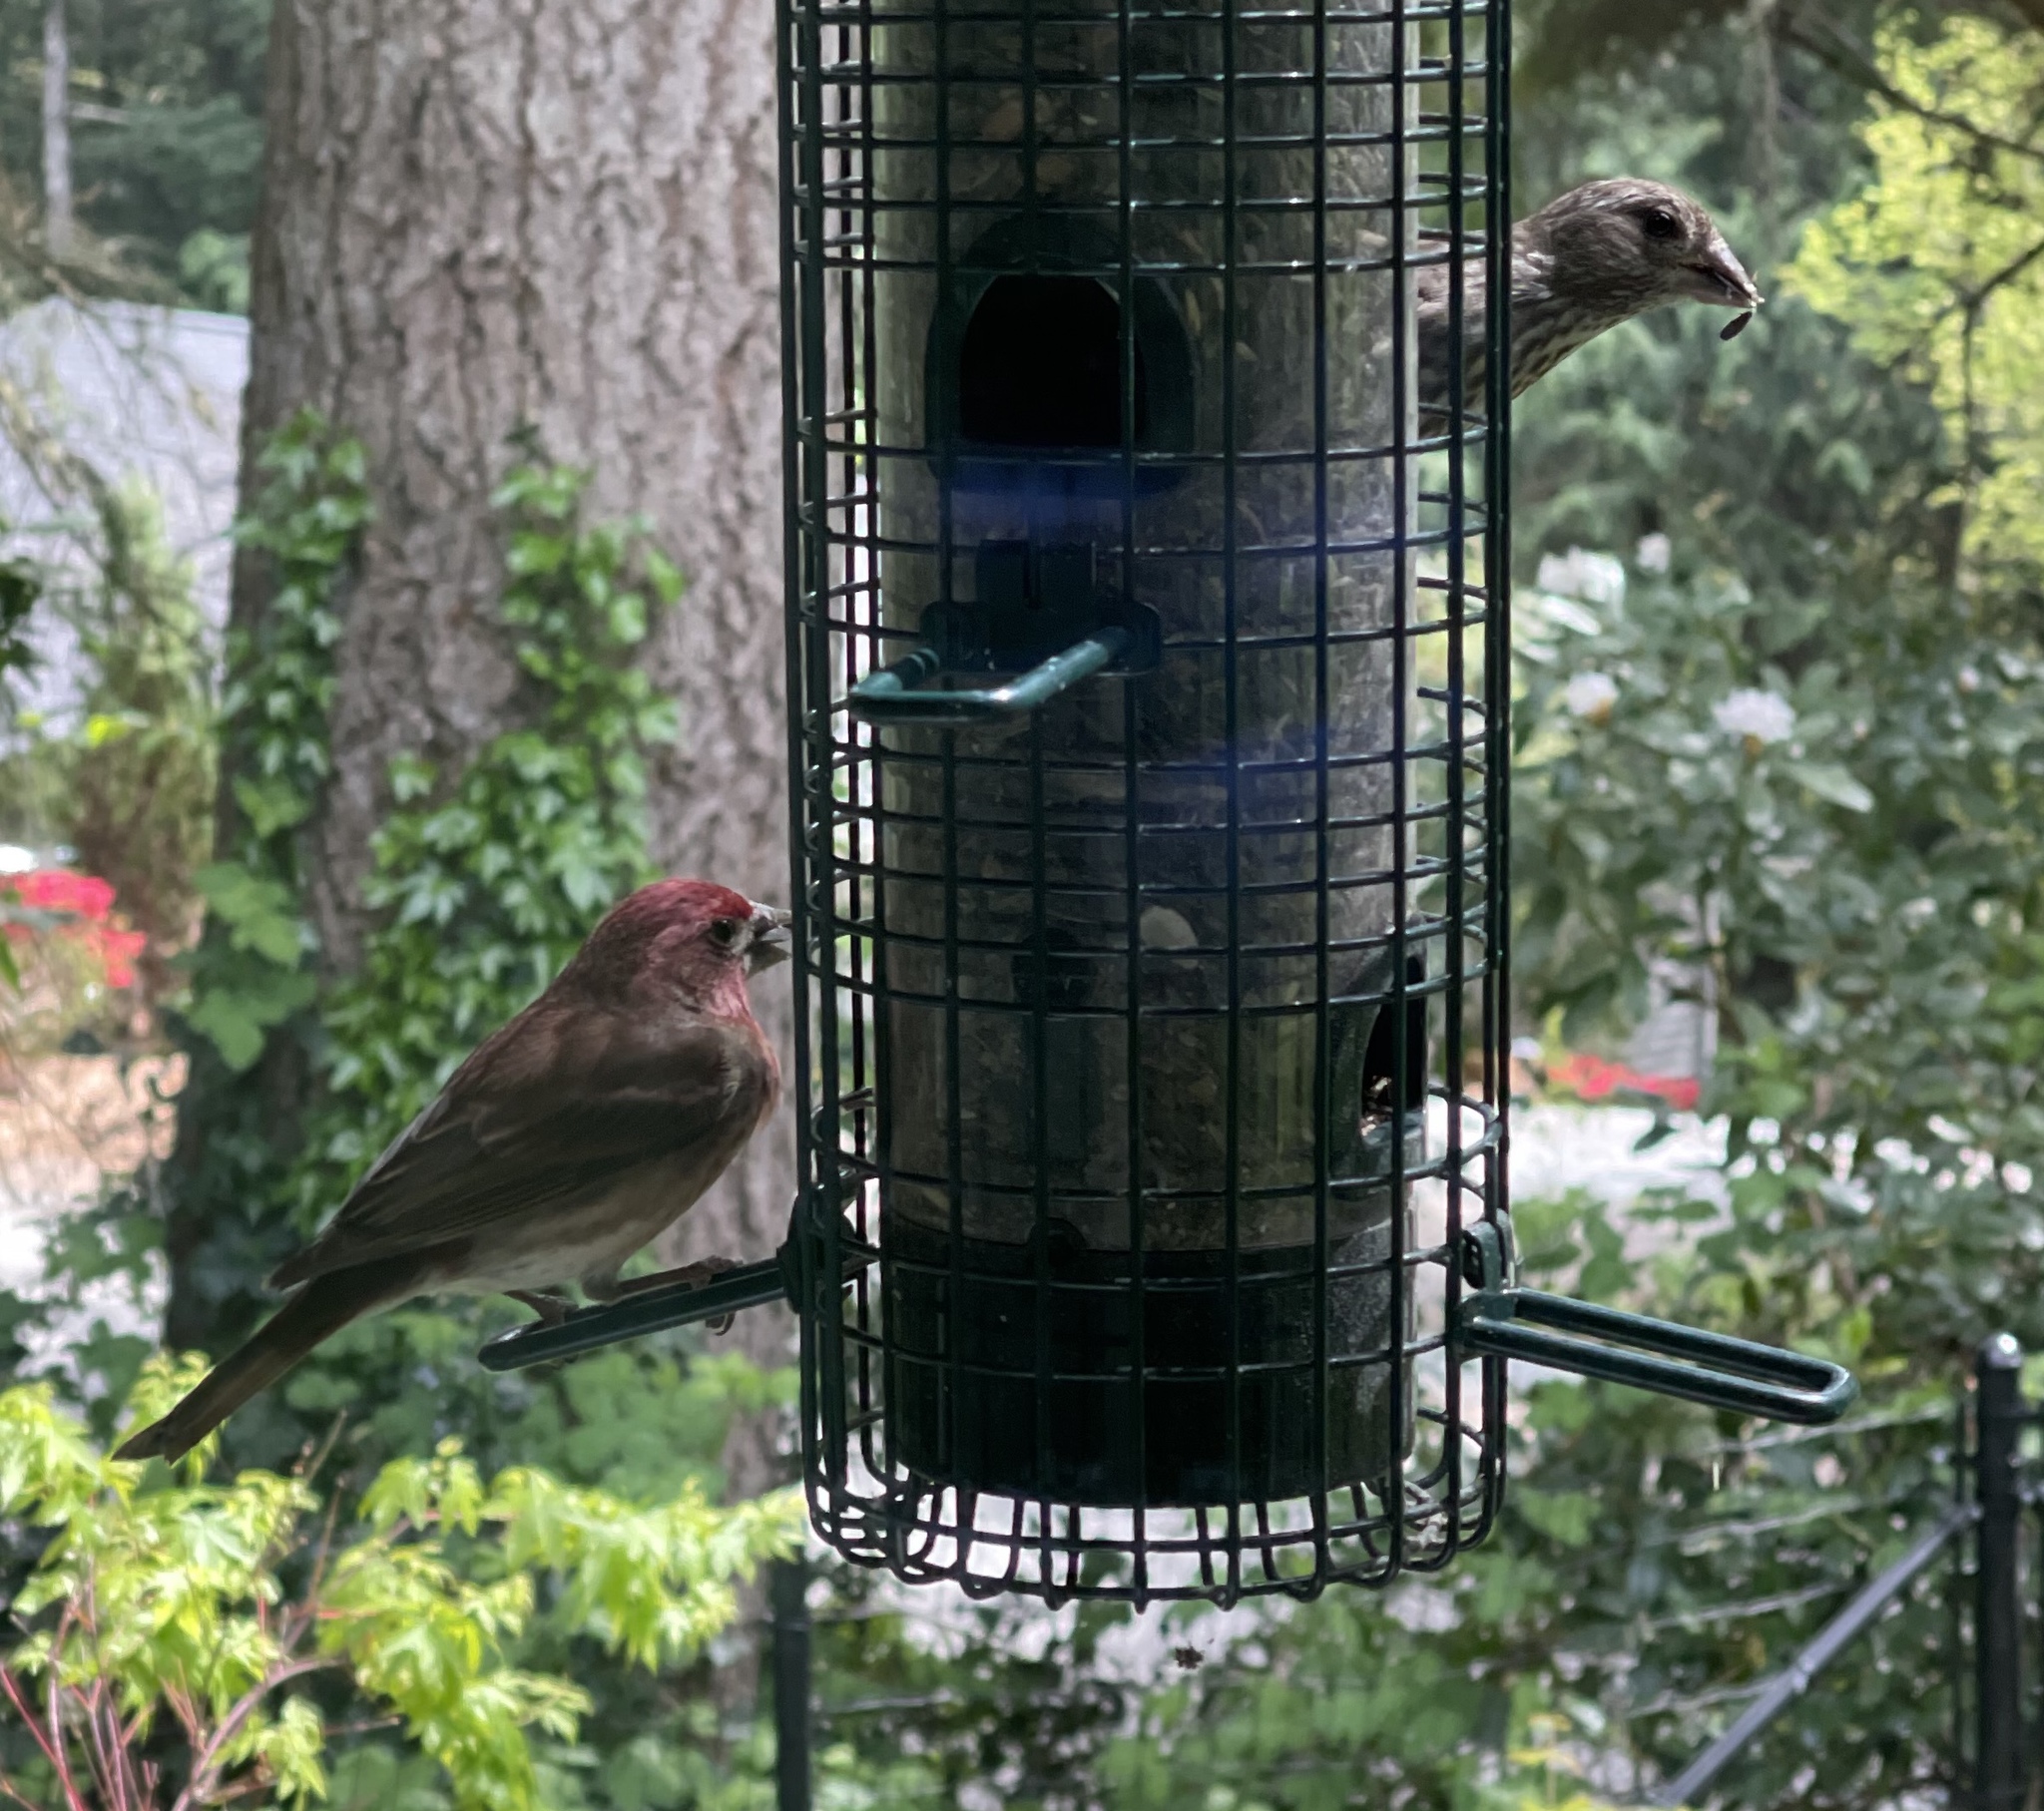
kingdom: Animalia
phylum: Chordata
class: Aves
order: Passeriformes
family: Fringillidae
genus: Haemorhous
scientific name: Haemorhous purpureus
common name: Purple finch
